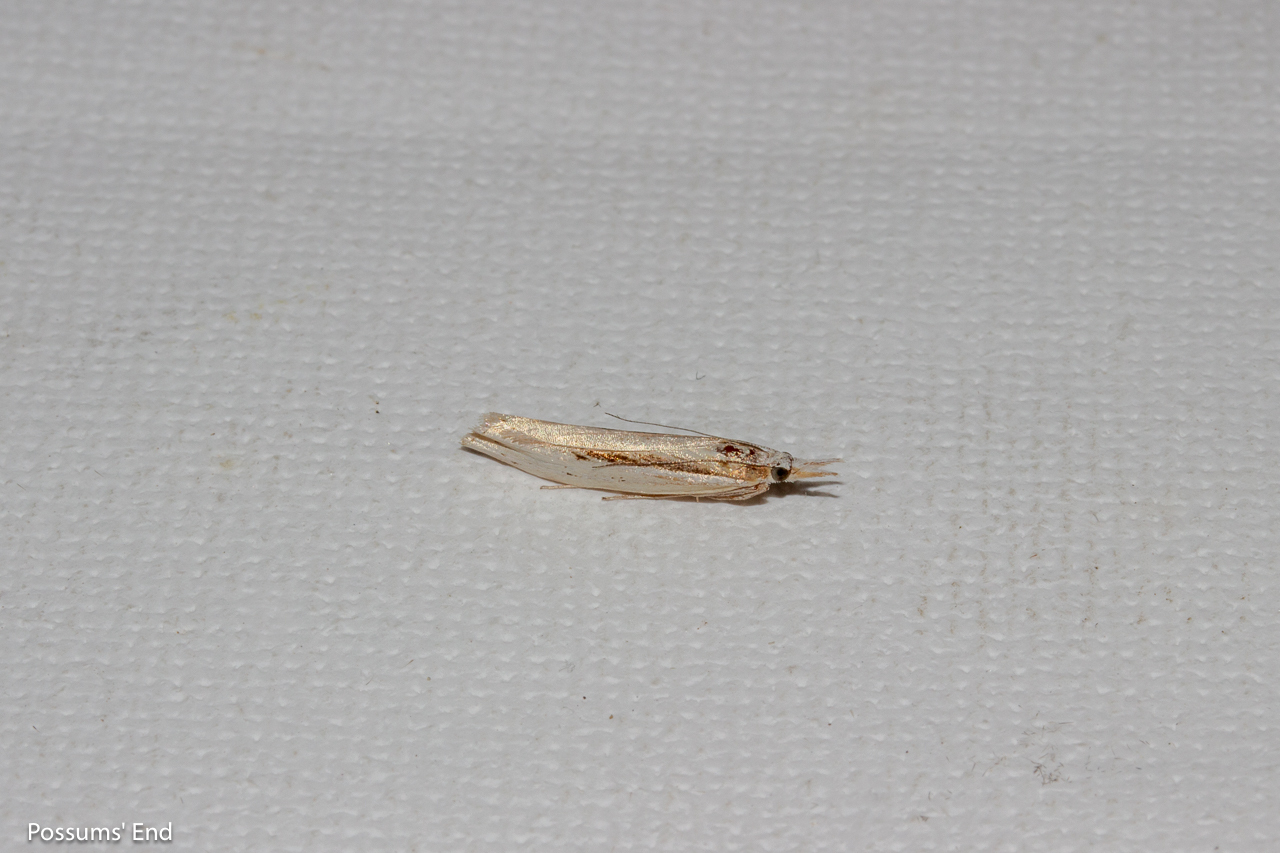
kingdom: Animalia
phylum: Arthropoda
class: Insecta
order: Lepidoptera
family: Crambidae
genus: Orocrambus
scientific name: Orocrambus ramosellus
